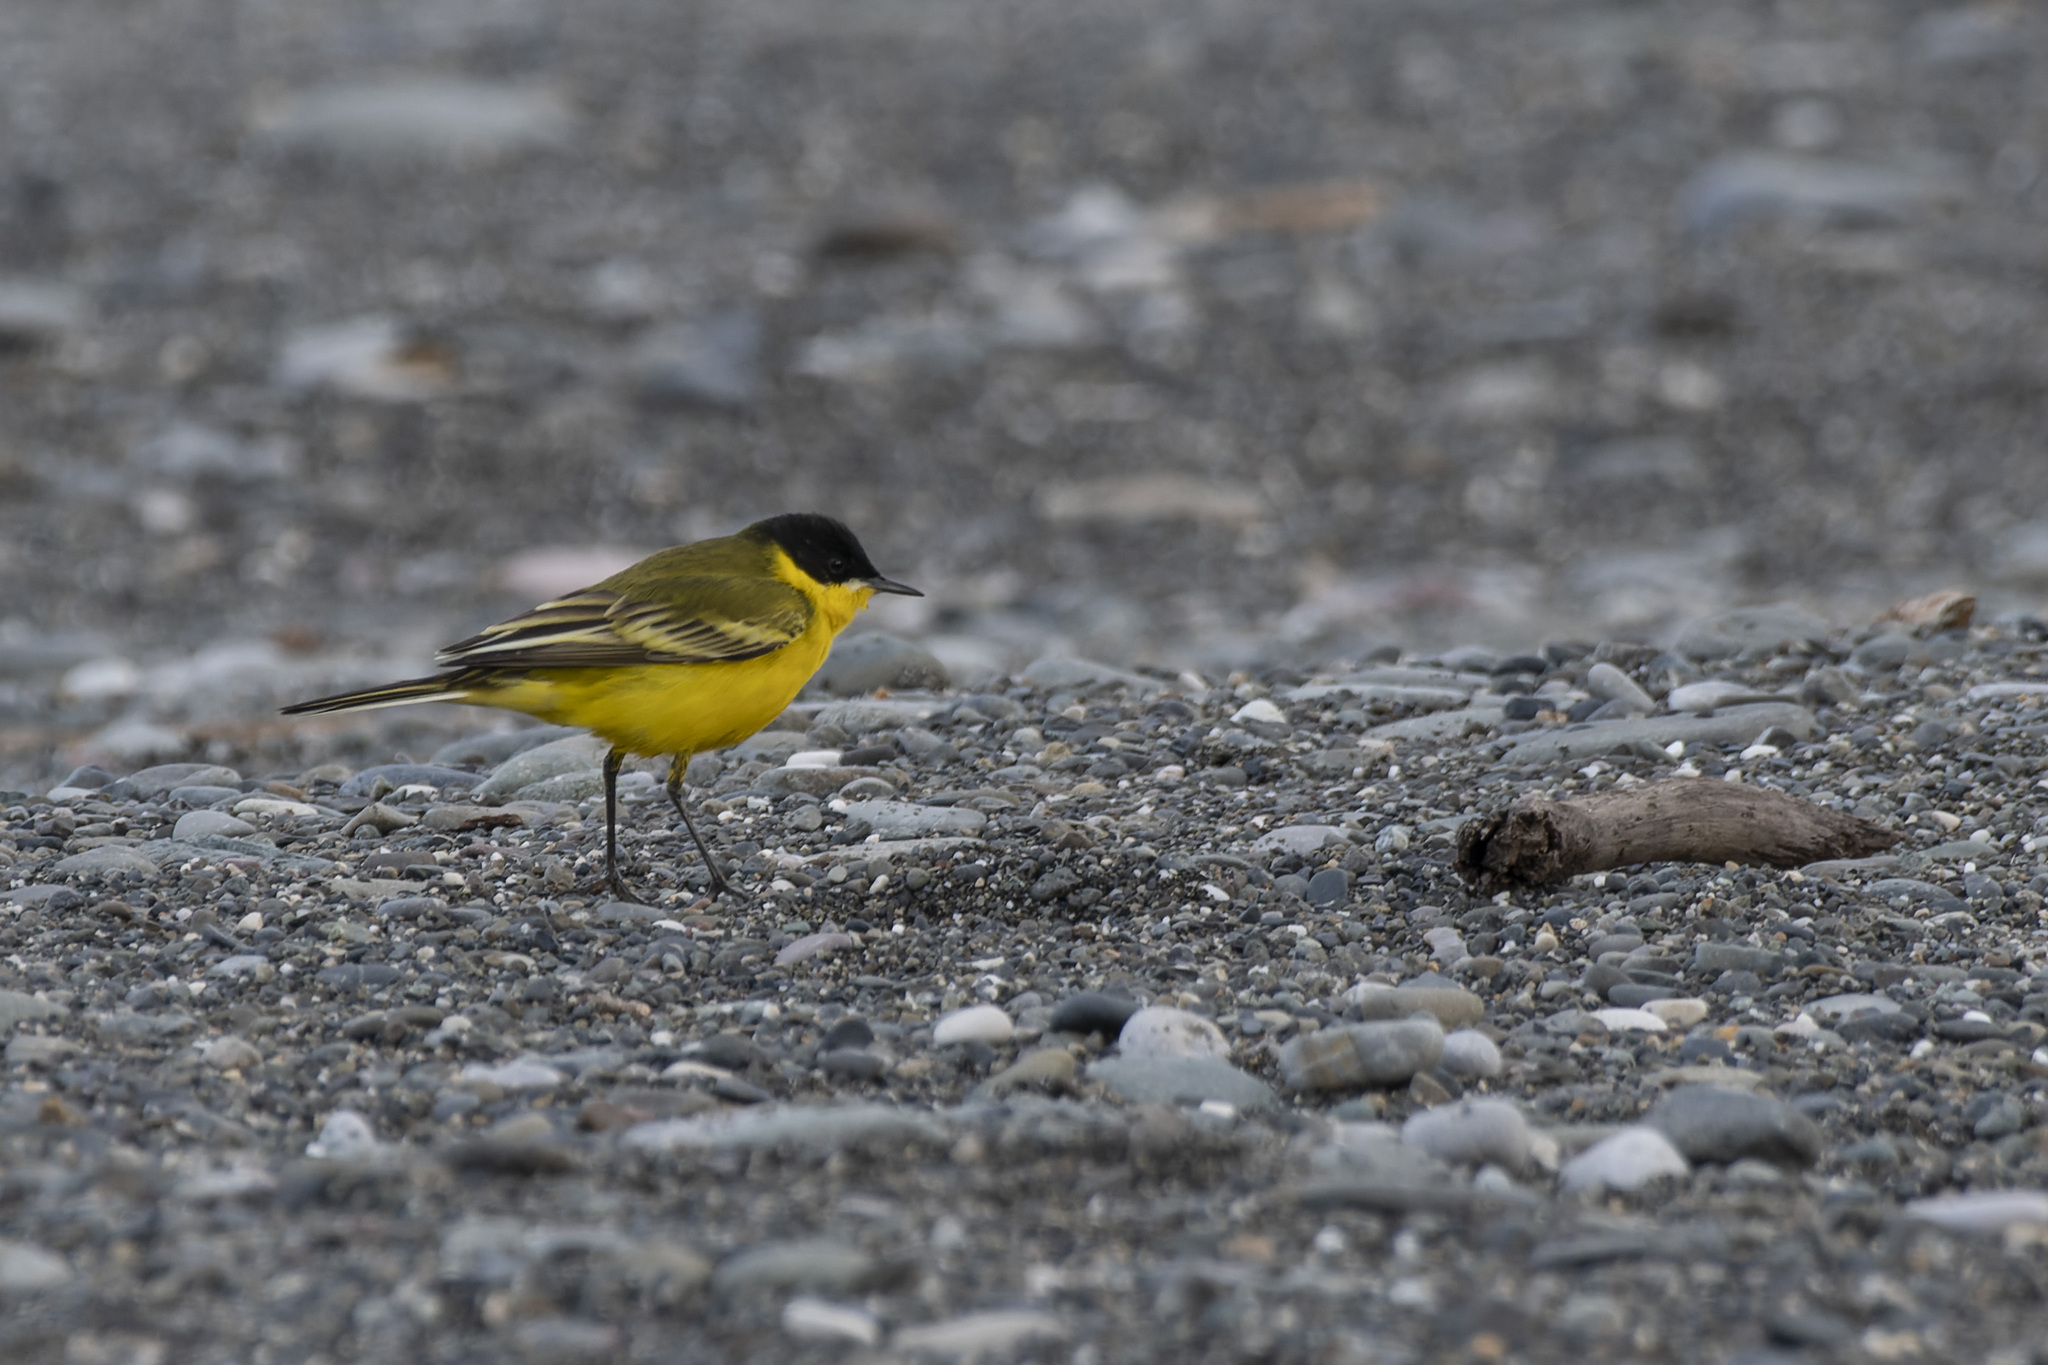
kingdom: Animalia
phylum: Chordata
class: Aves
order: Passeriformes
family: Motacillidae
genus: Motacilla
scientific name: Motacilla flava
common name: Western yellow wagtail
